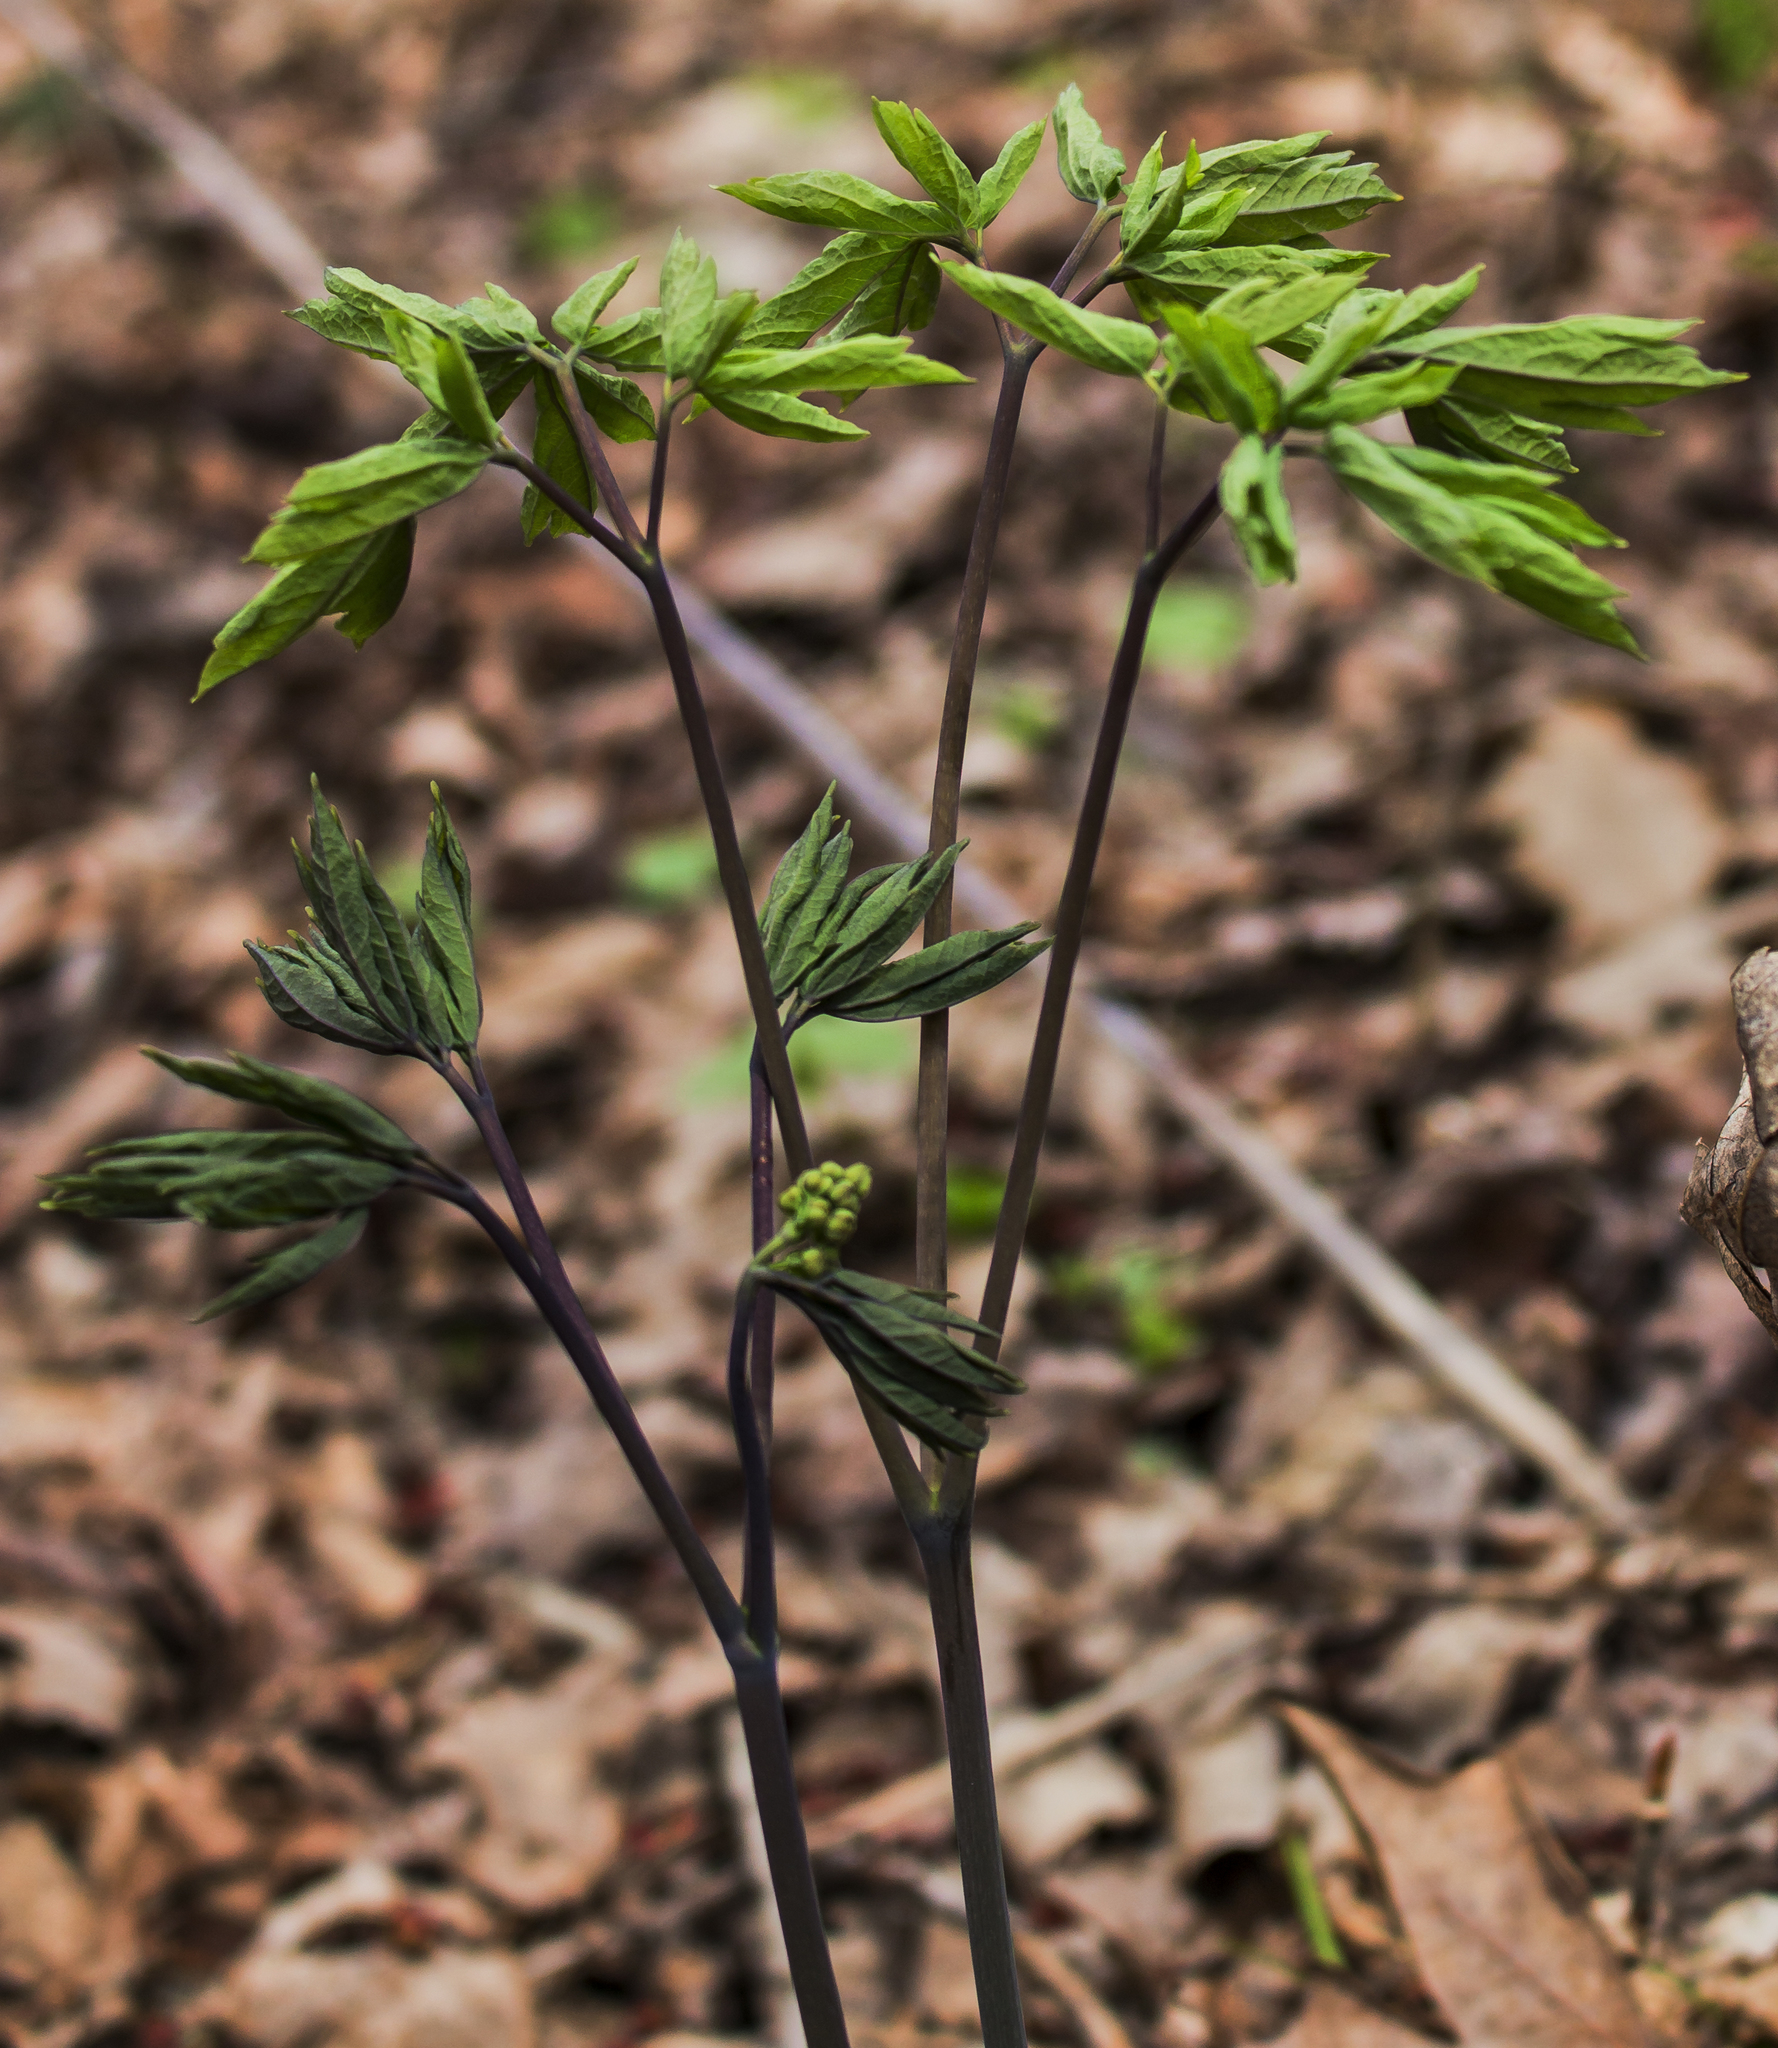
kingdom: Plantae
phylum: Tracheophyta
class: Magnoliopsida
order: Ranunculales
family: Berberidaceae
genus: Caulophyllum
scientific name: Caulophyllum thalictroides
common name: Blue cohosh
